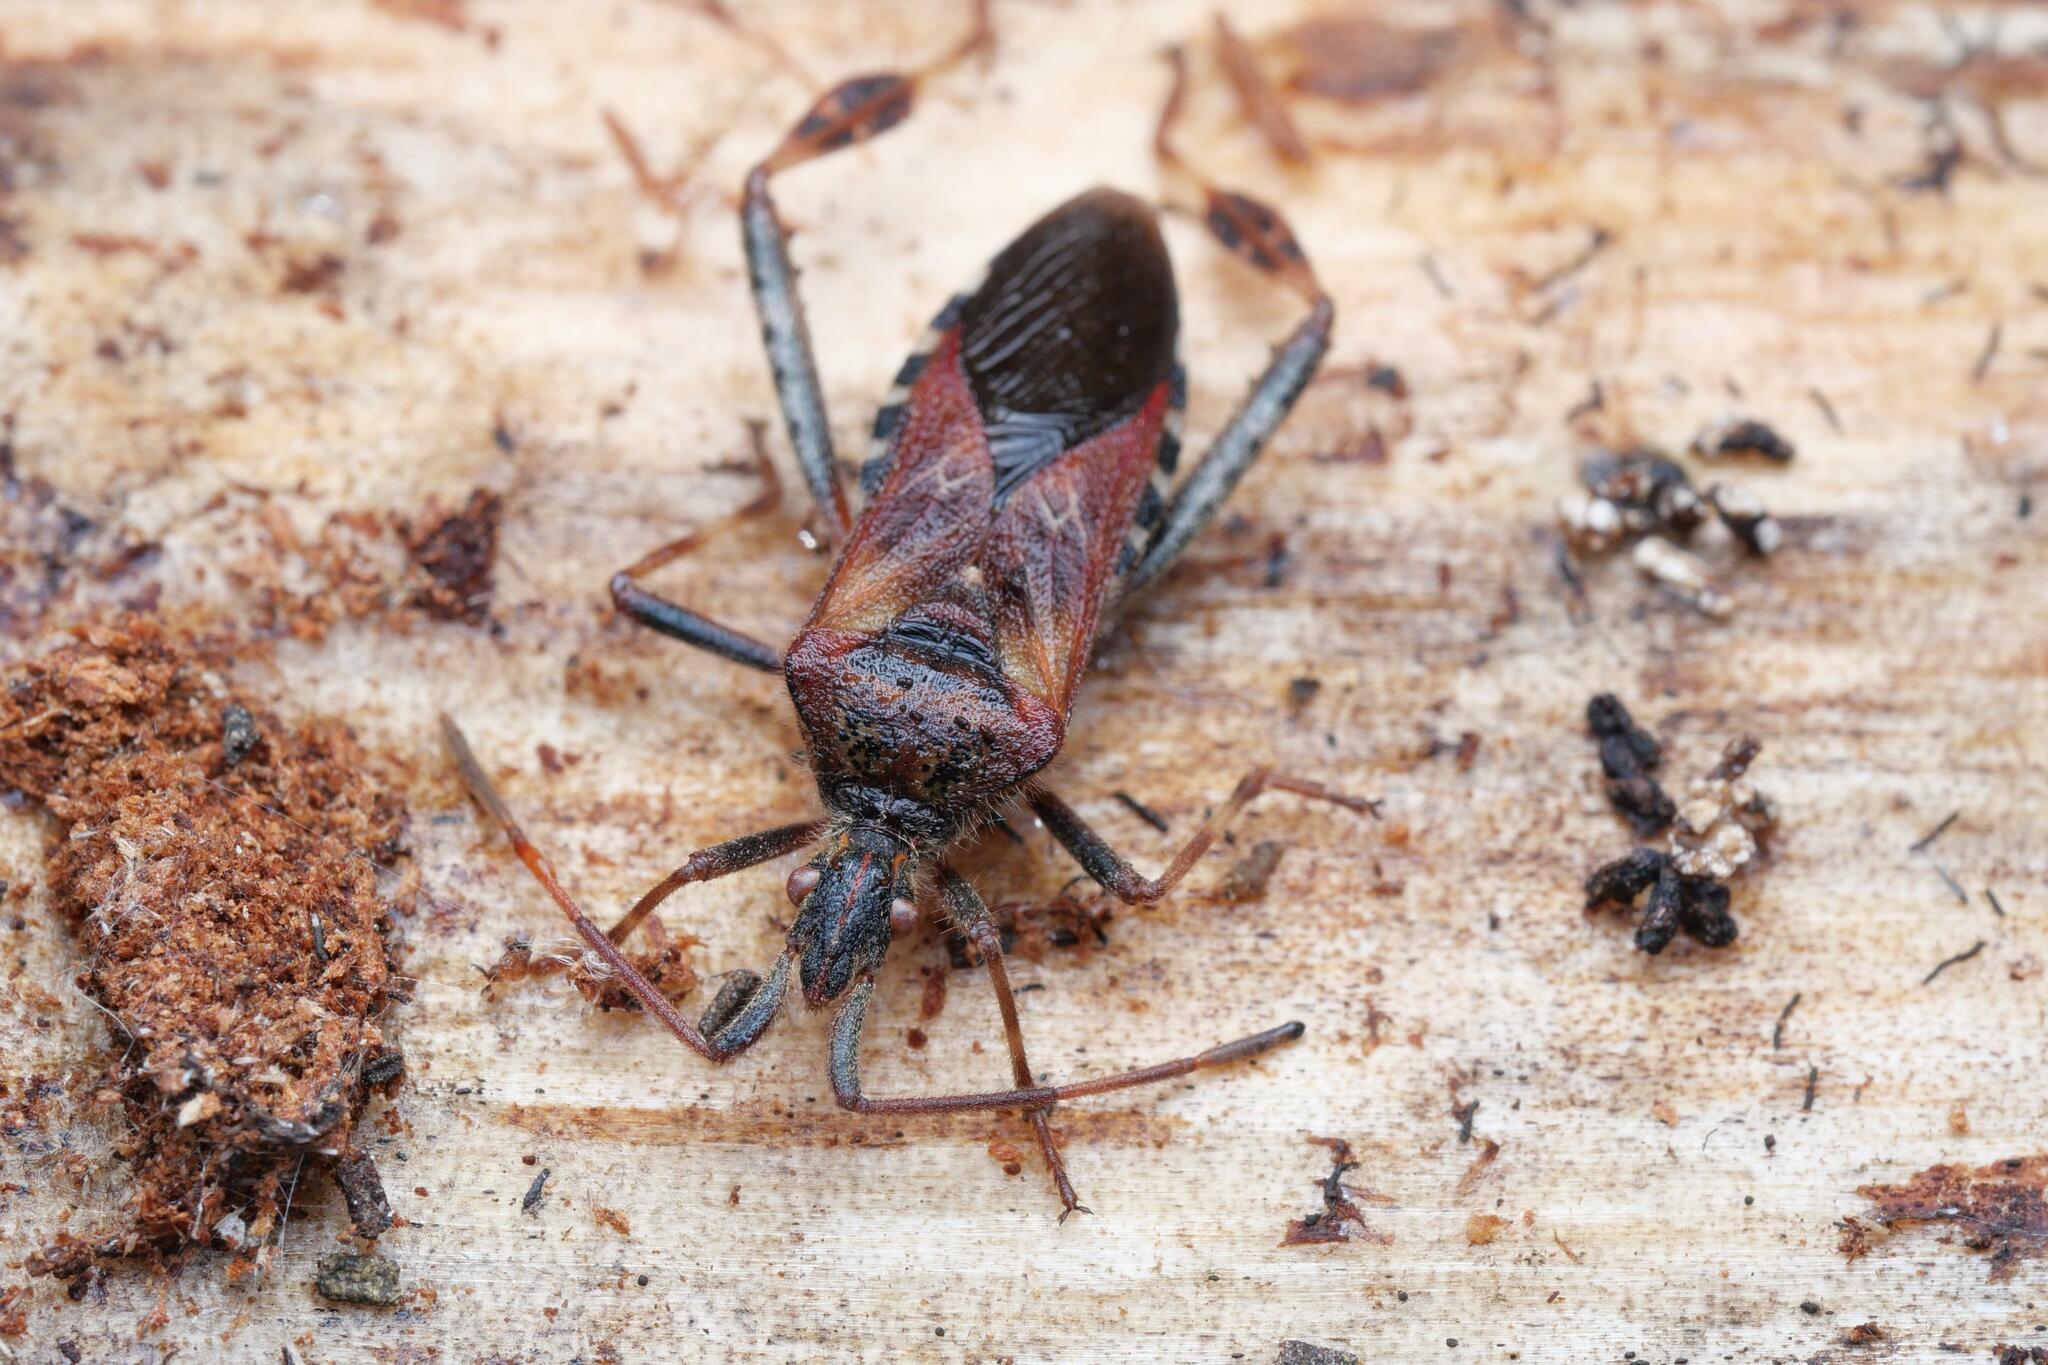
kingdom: Animalia
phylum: Arthropoda
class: Insecta
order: Hemiptera
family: Coreidae
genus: Leptoglossus
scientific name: Leptoglossus occidentalis
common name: Western conifer-seed bug
